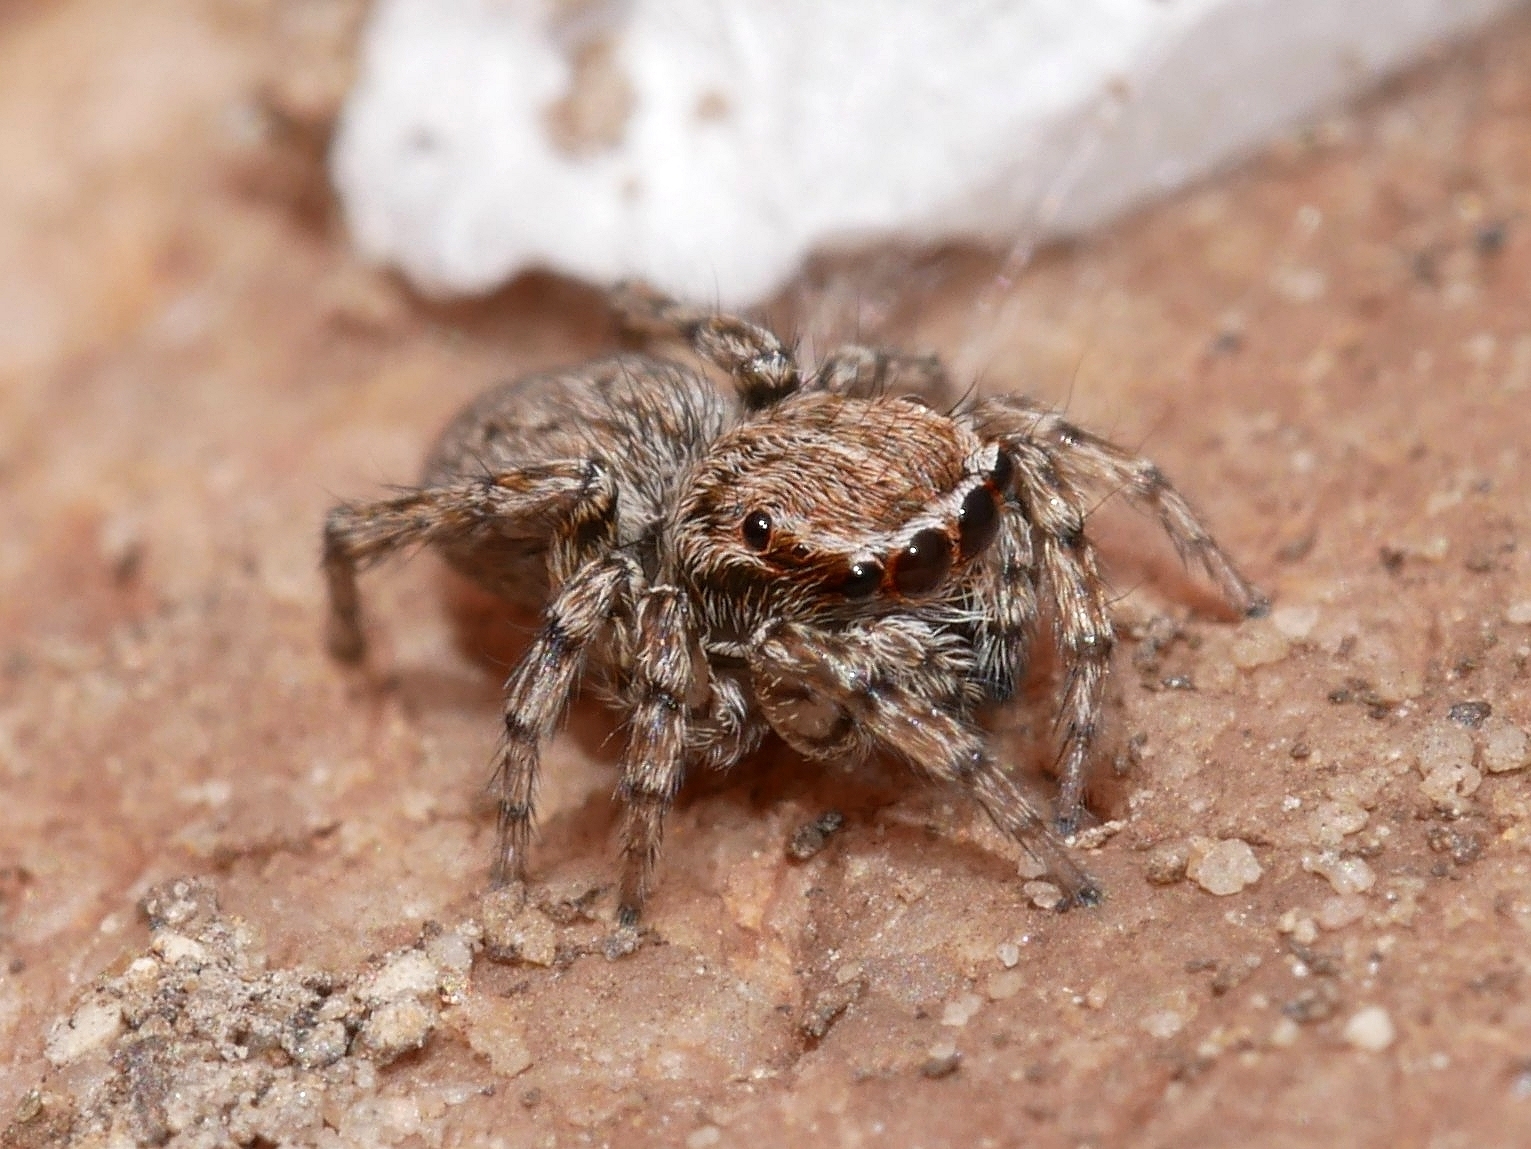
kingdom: Animalia
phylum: Arthropoda
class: Arachnida
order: Araneae
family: Salticidae
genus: Attinella
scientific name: Attinella dorsata
